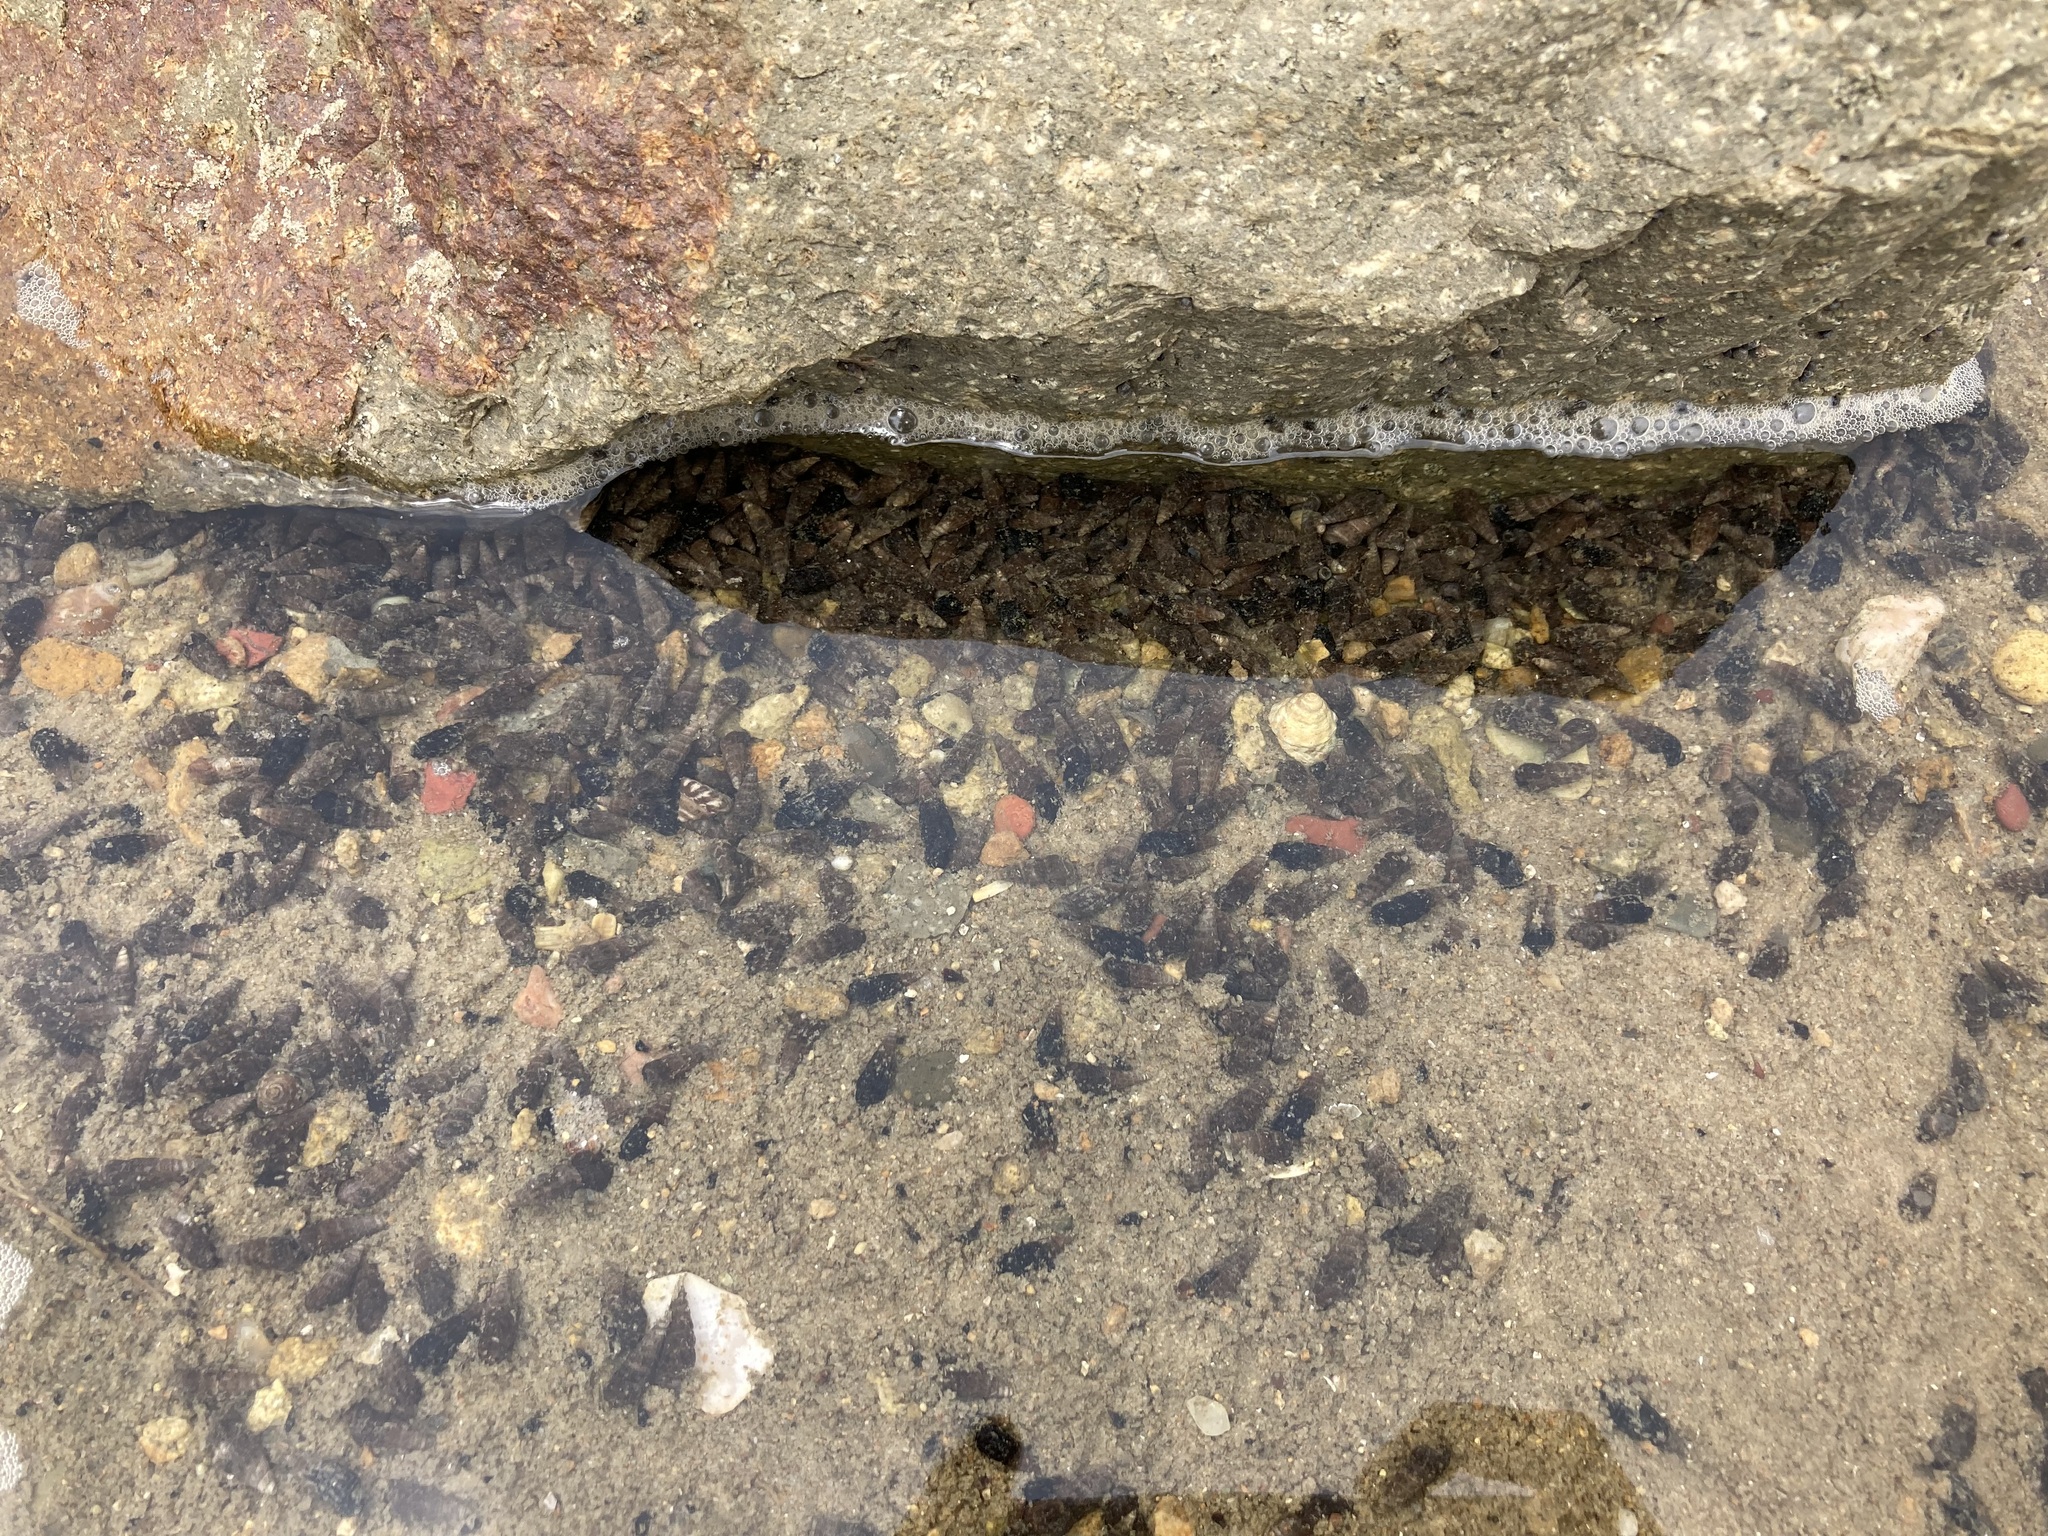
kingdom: Animalia
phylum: Mollusca
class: Gastropoda
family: Batillariidae
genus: Zeacumantus
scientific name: Zeacumantus subcarinatus
